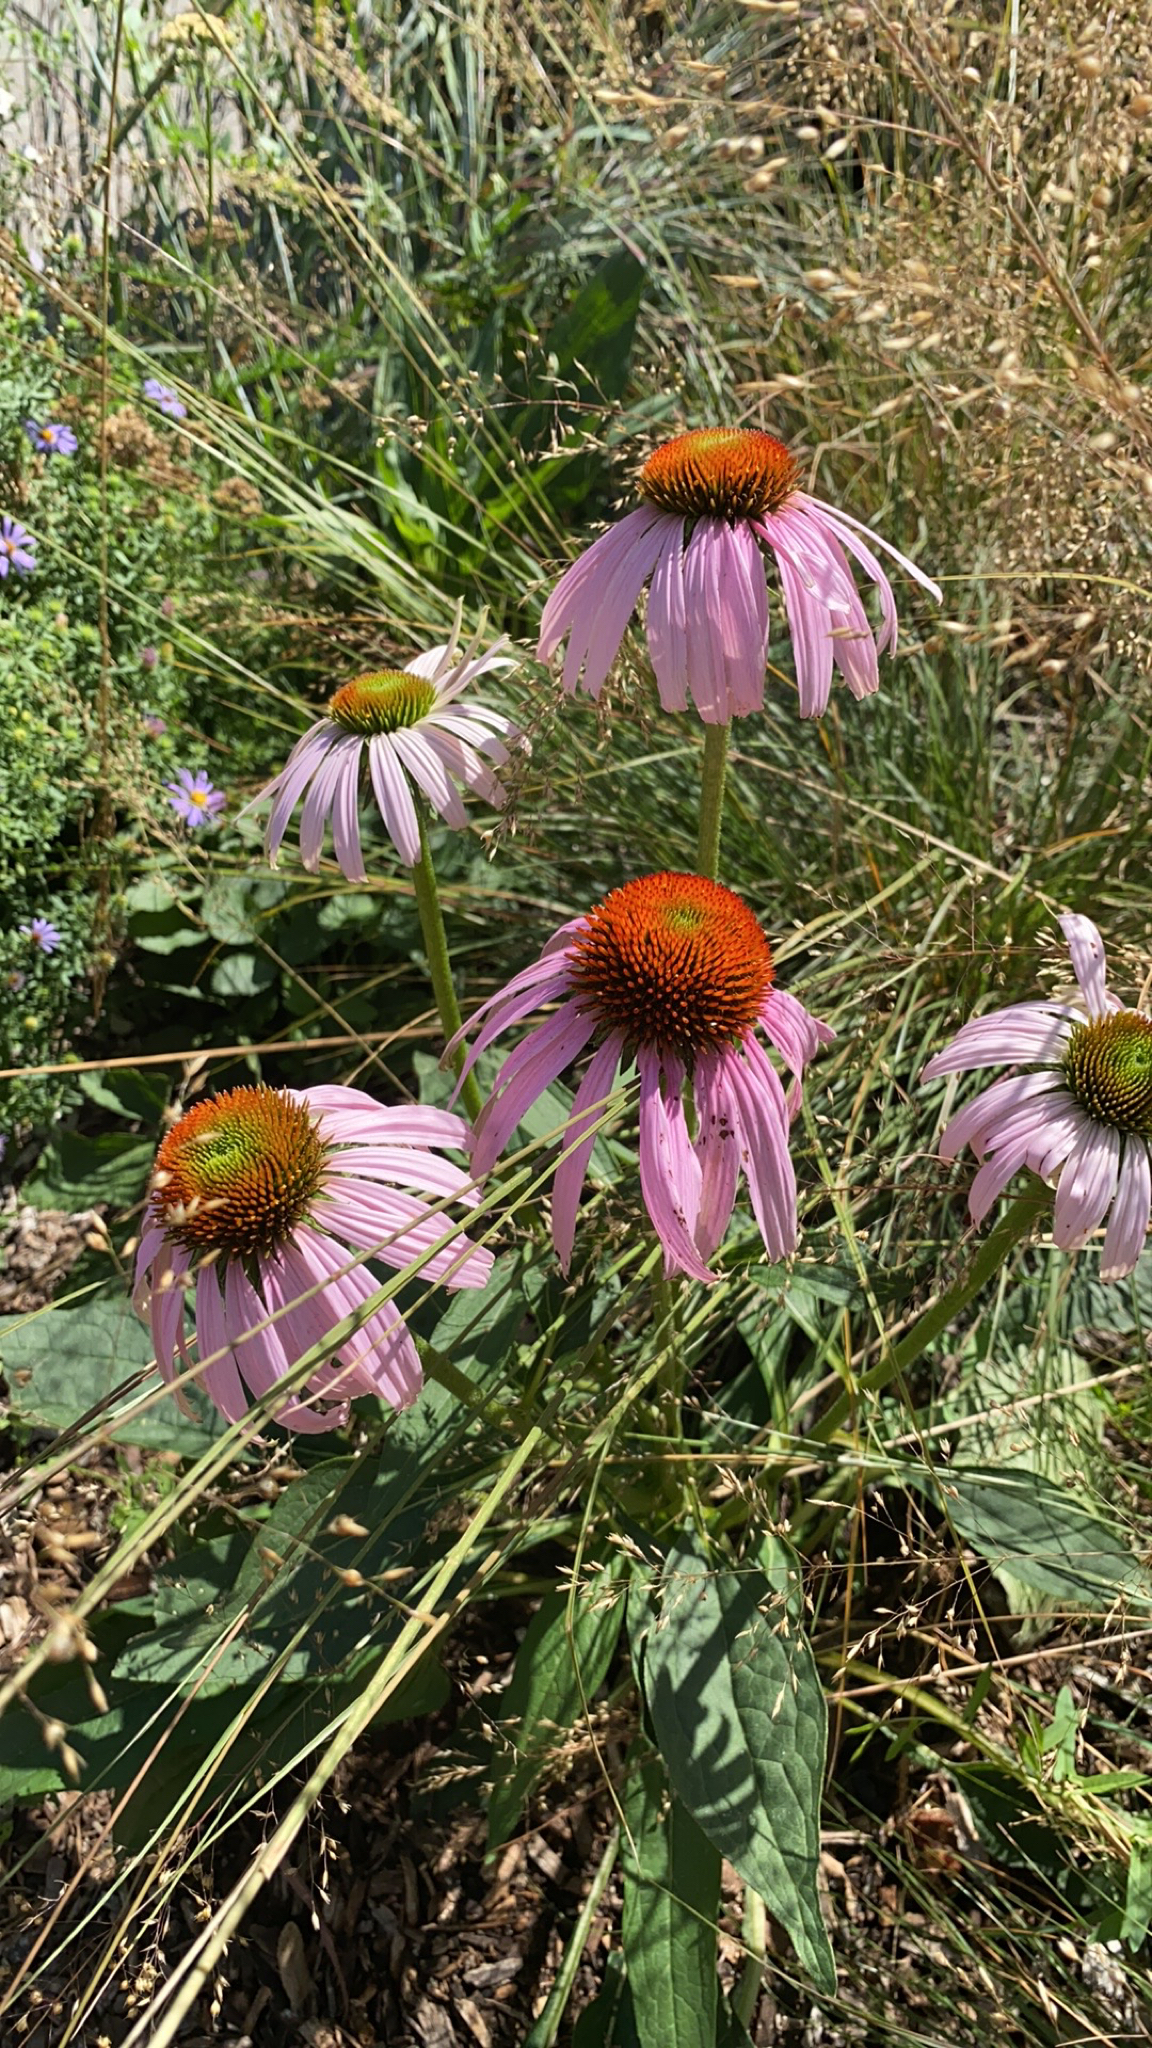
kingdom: Plantae
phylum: Tracheophyta
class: Magnoliopsida
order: Asterales
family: Asteraceae
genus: Echinacea
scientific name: Echinacea purpurea
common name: Broad-leaved purple coneflower
